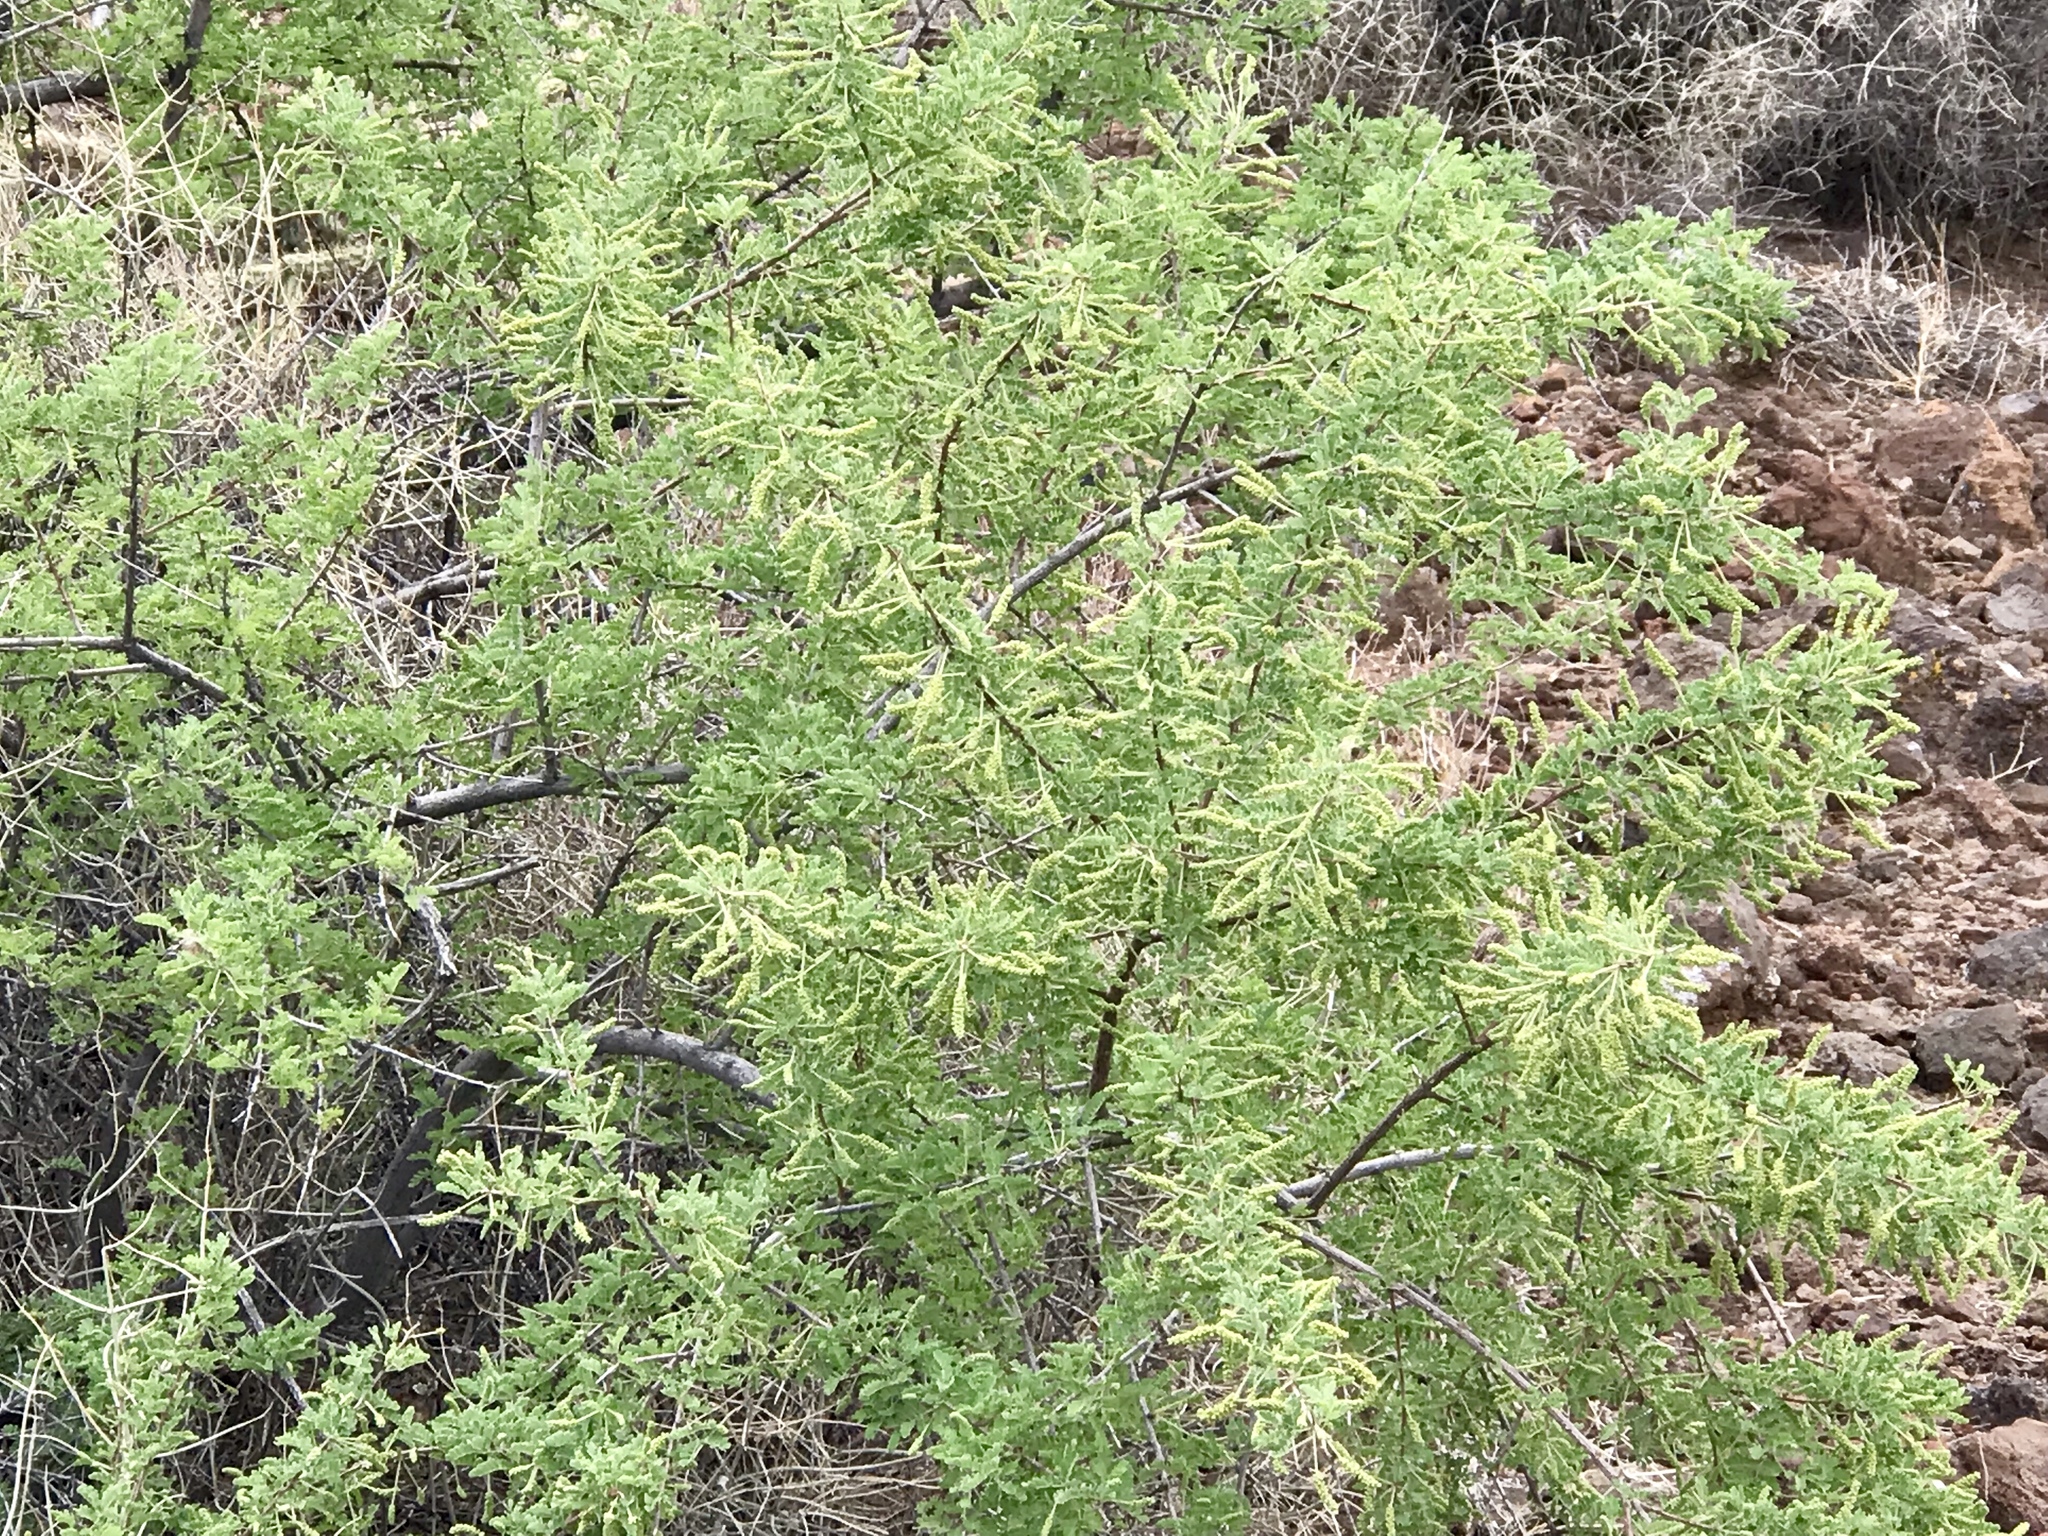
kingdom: Plantae
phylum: Tracheophyta
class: Magnoliopsida
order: Fabales
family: Fabaceae
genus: Senegalia
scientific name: Senegalia greggii
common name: Texas-mimosa
